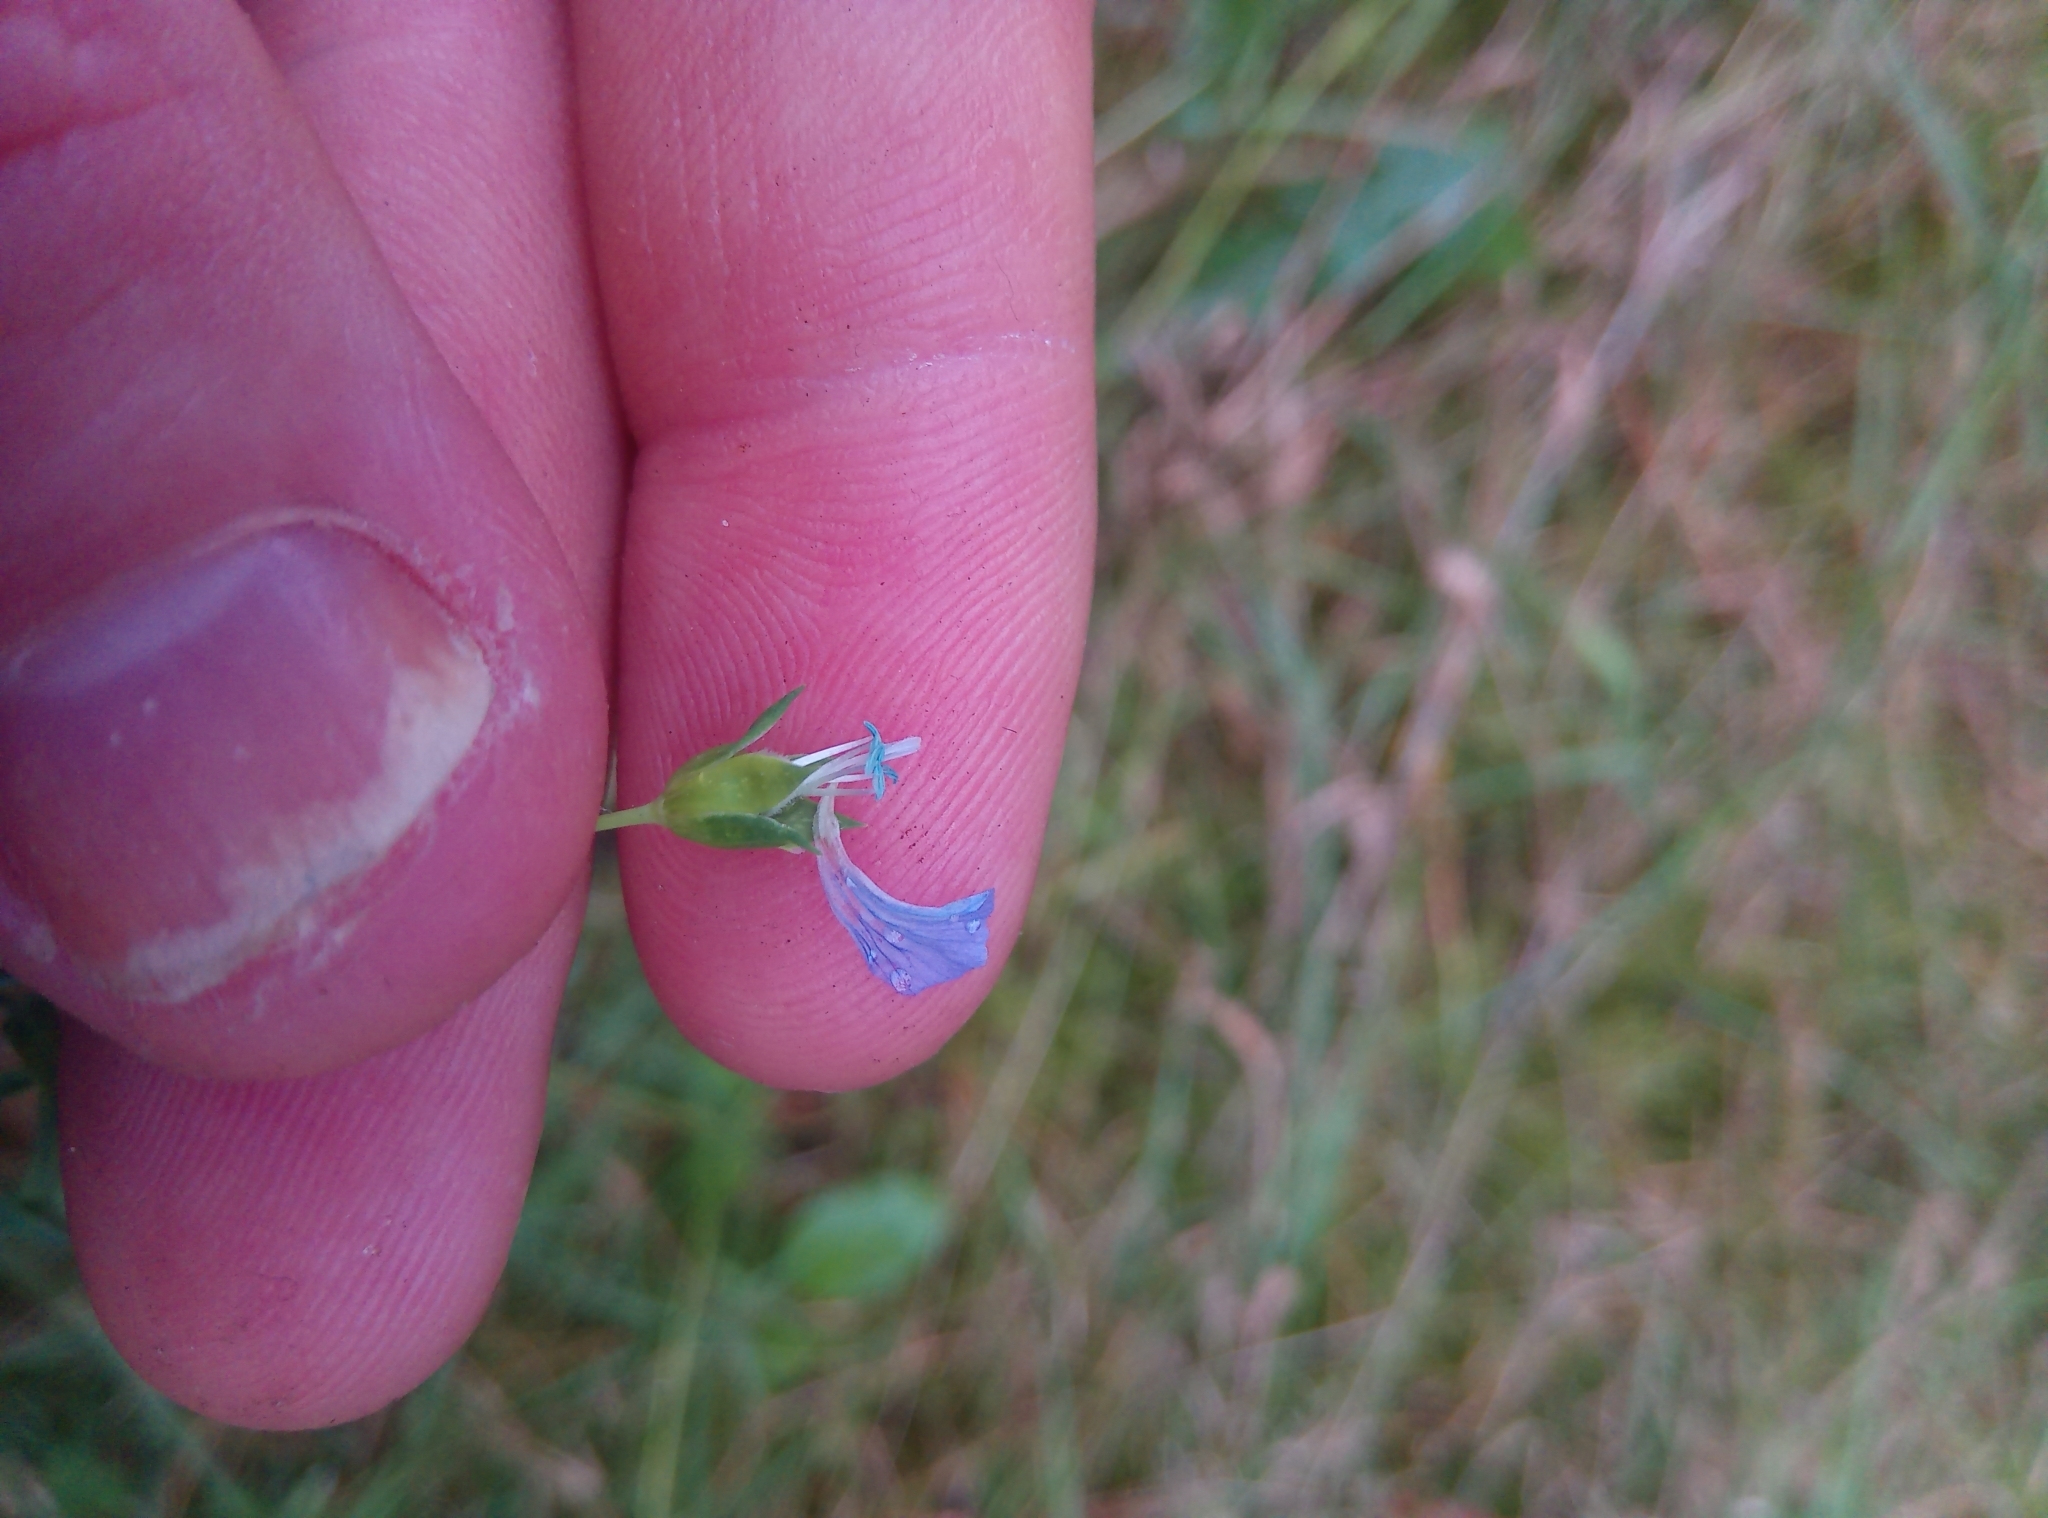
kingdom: Plantae
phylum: Tracheophyta
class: Magnoliopsida
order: Malpighiales
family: Linaceae
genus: Linum
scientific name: Linum usitatissimum
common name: Flax
